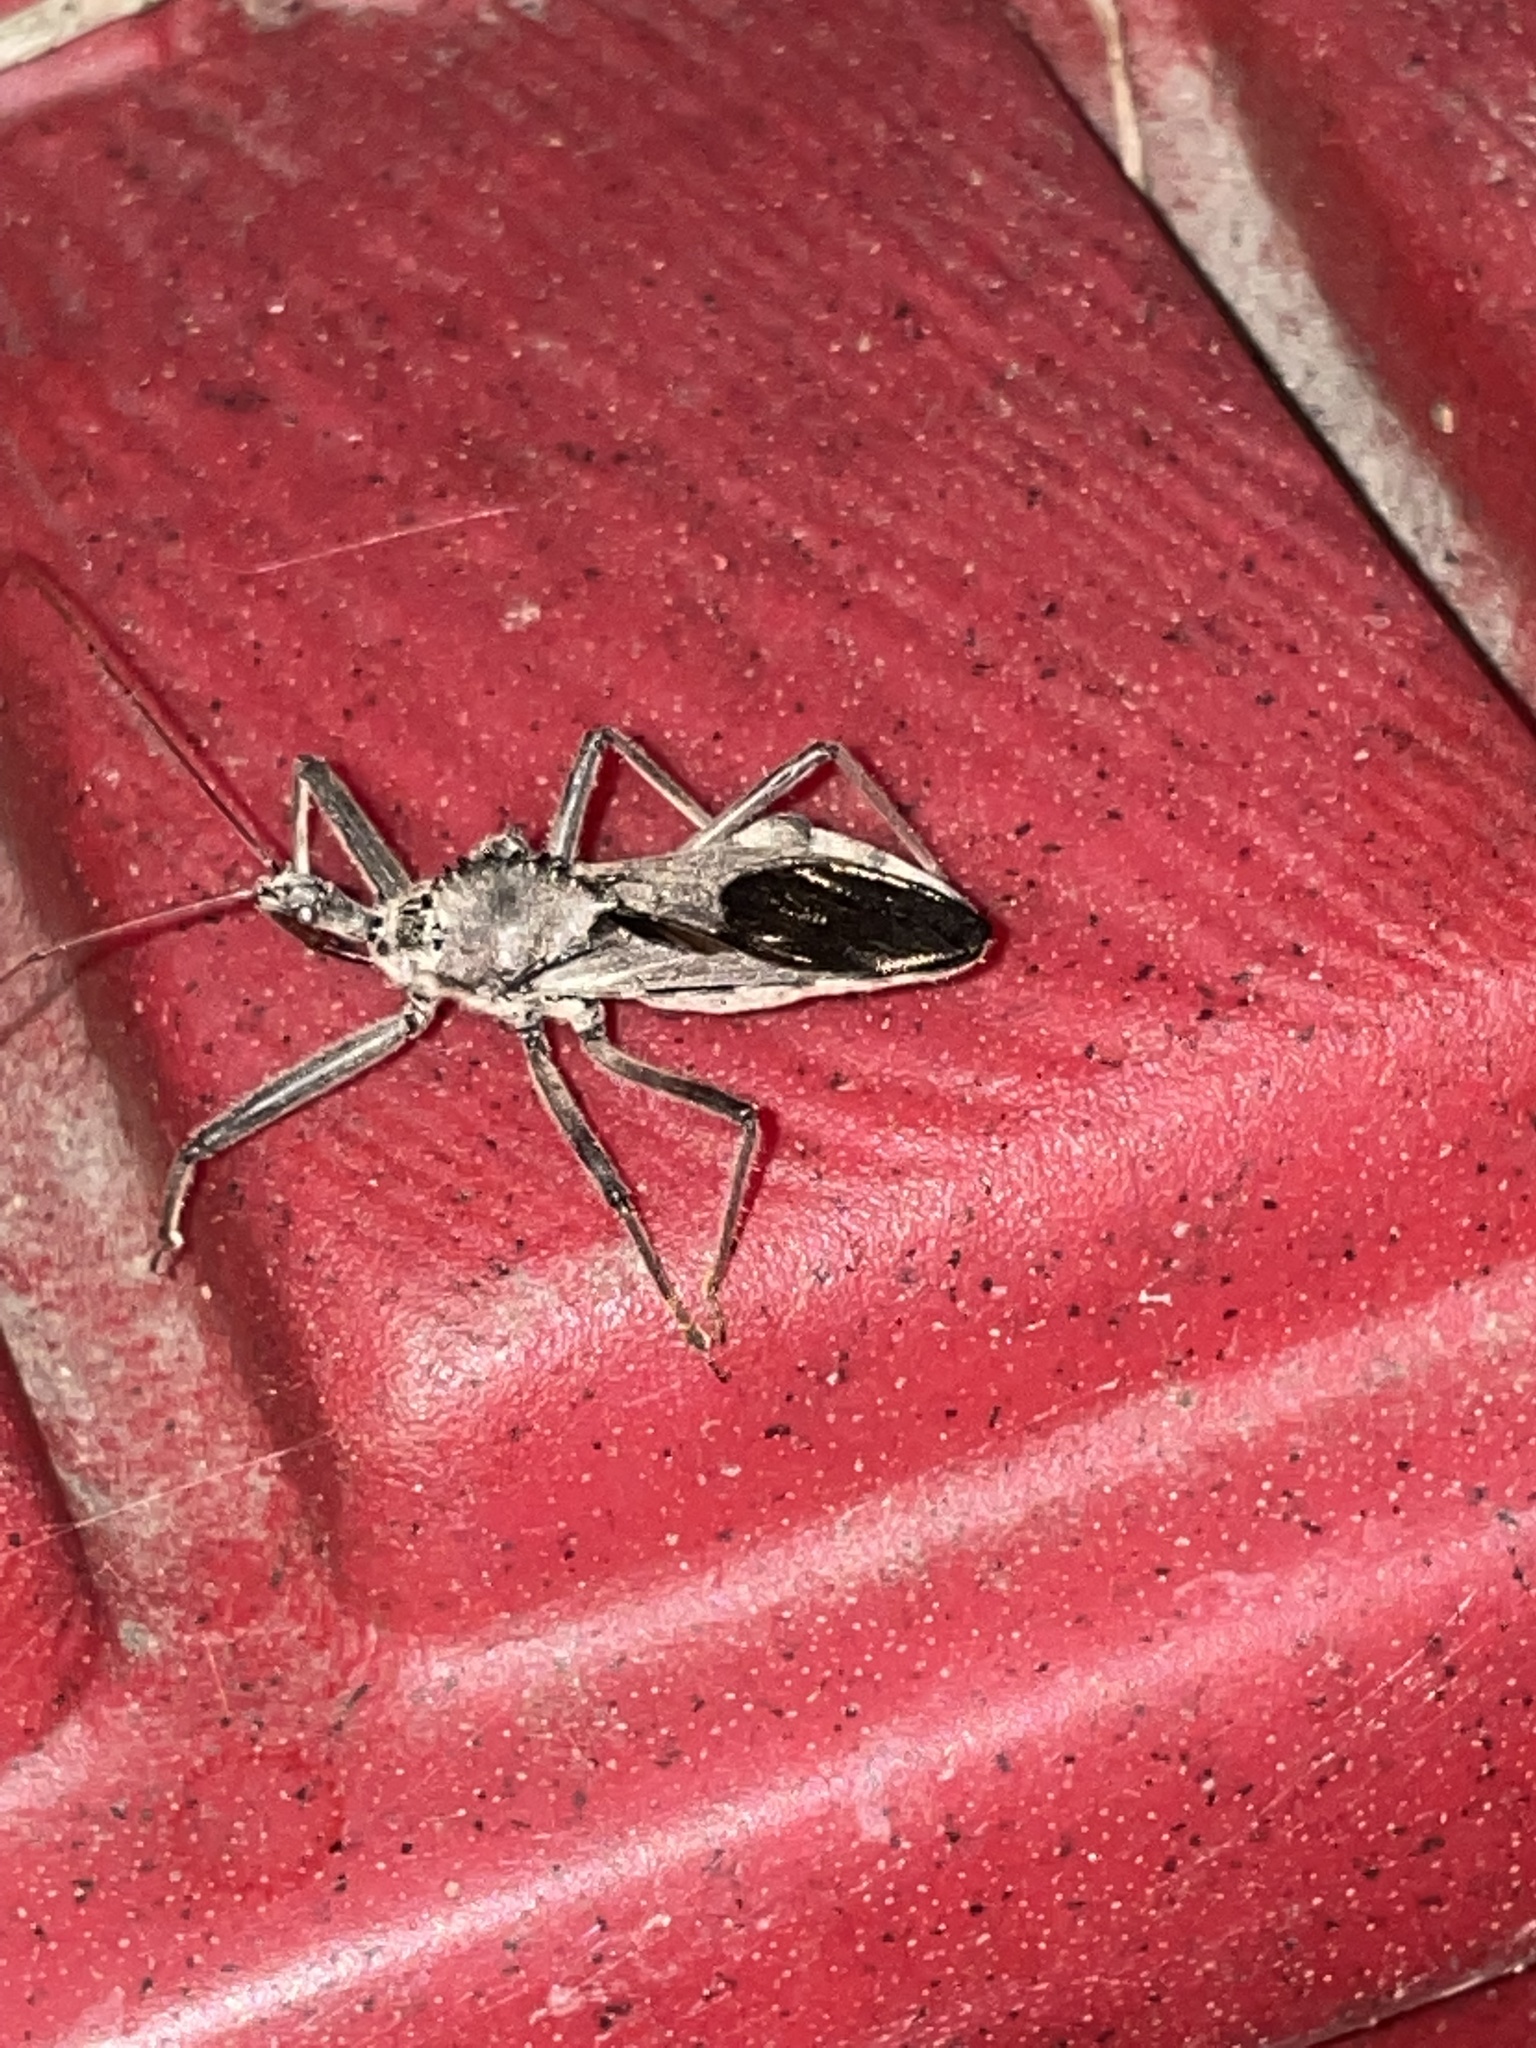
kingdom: Animalia
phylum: Arthropoda
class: Insecta
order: Hemiptera
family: Reduviidae
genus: Arilus
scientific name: Arilus cristatus
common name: North american wheel bug
